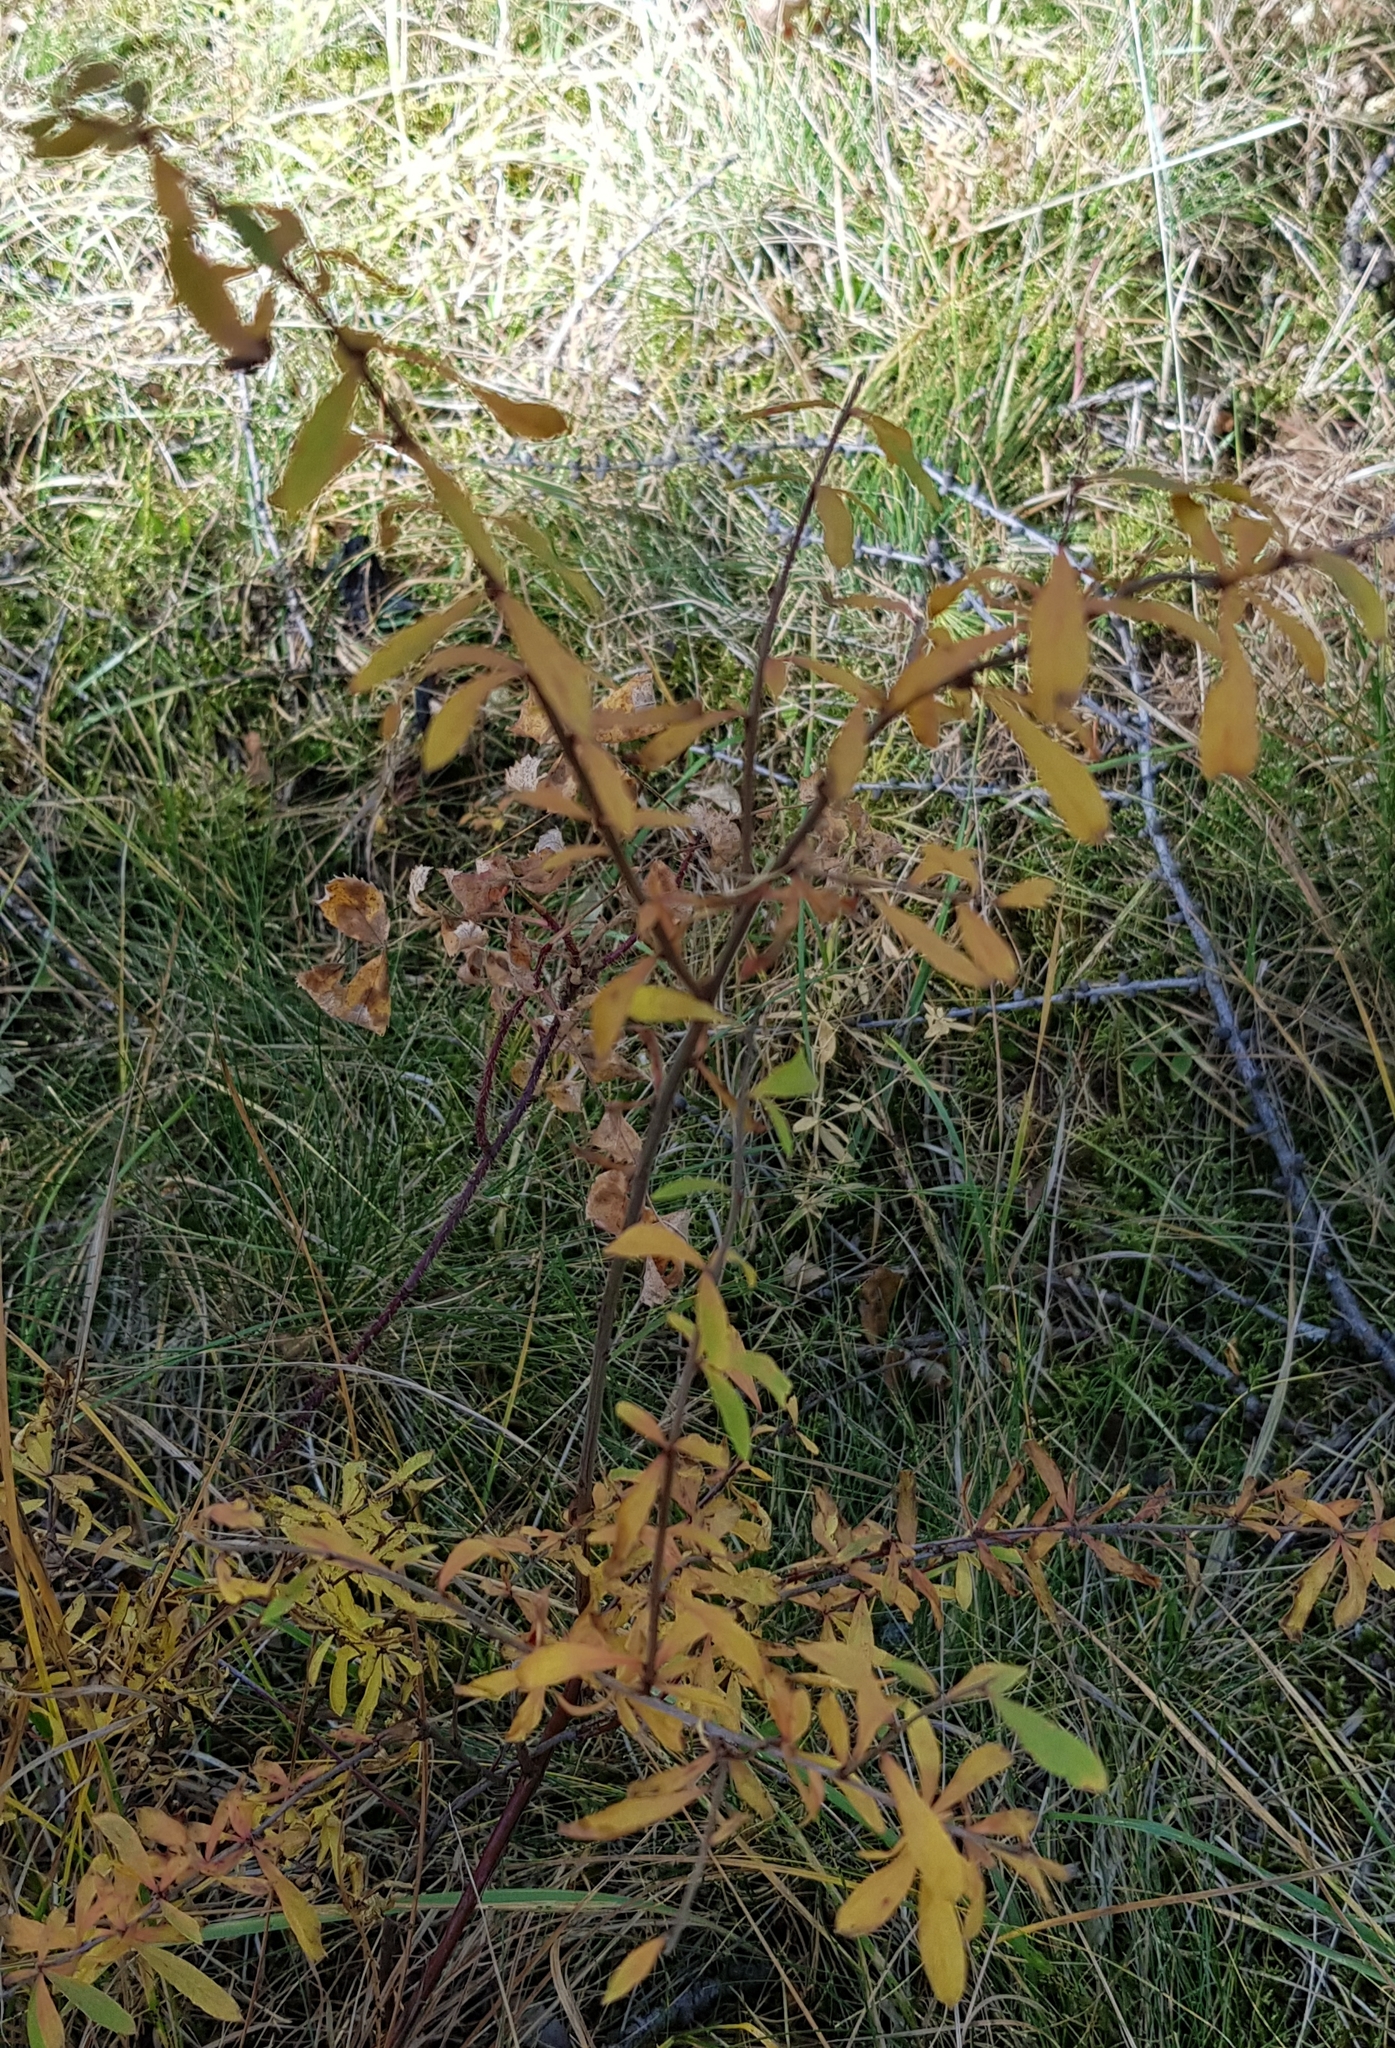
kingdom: Plantae
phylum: Tracheophyta
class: Magnoliopsida
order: Rosales
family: Rosaceae
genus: Spiraea
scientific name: Spiraea media
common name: Russian spiraea
